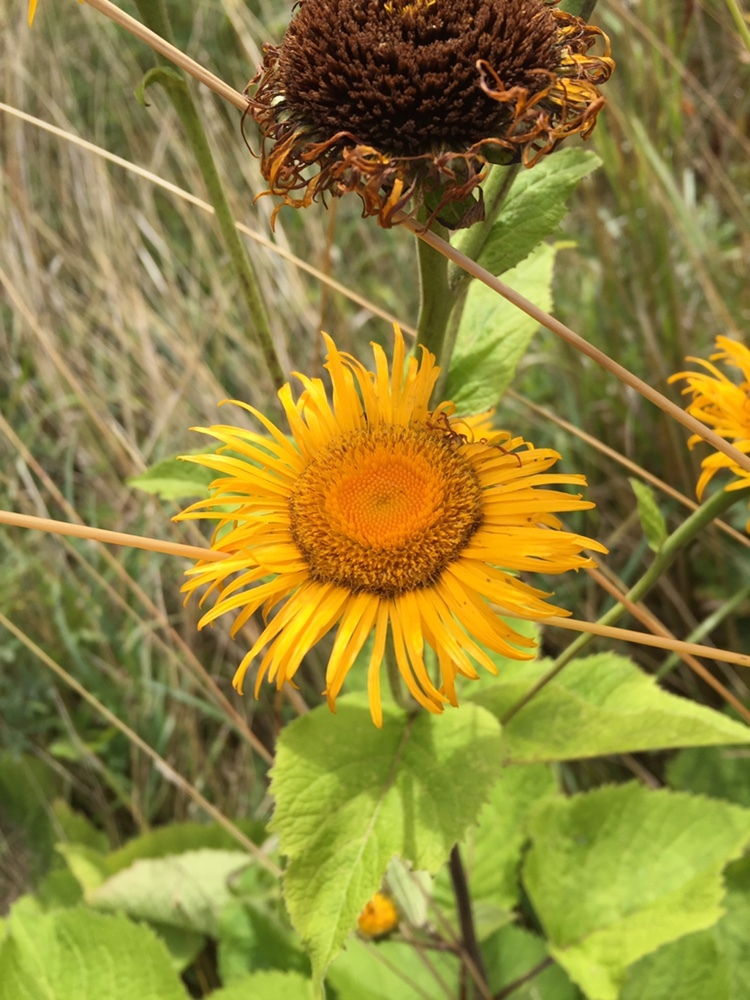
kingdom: Plantae
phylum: Tracheophyta
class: Magnoliopsida
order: Asterales
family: Asteraceae
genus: Telekia
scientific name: Telekia speciosa
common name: Yellow oxeye
